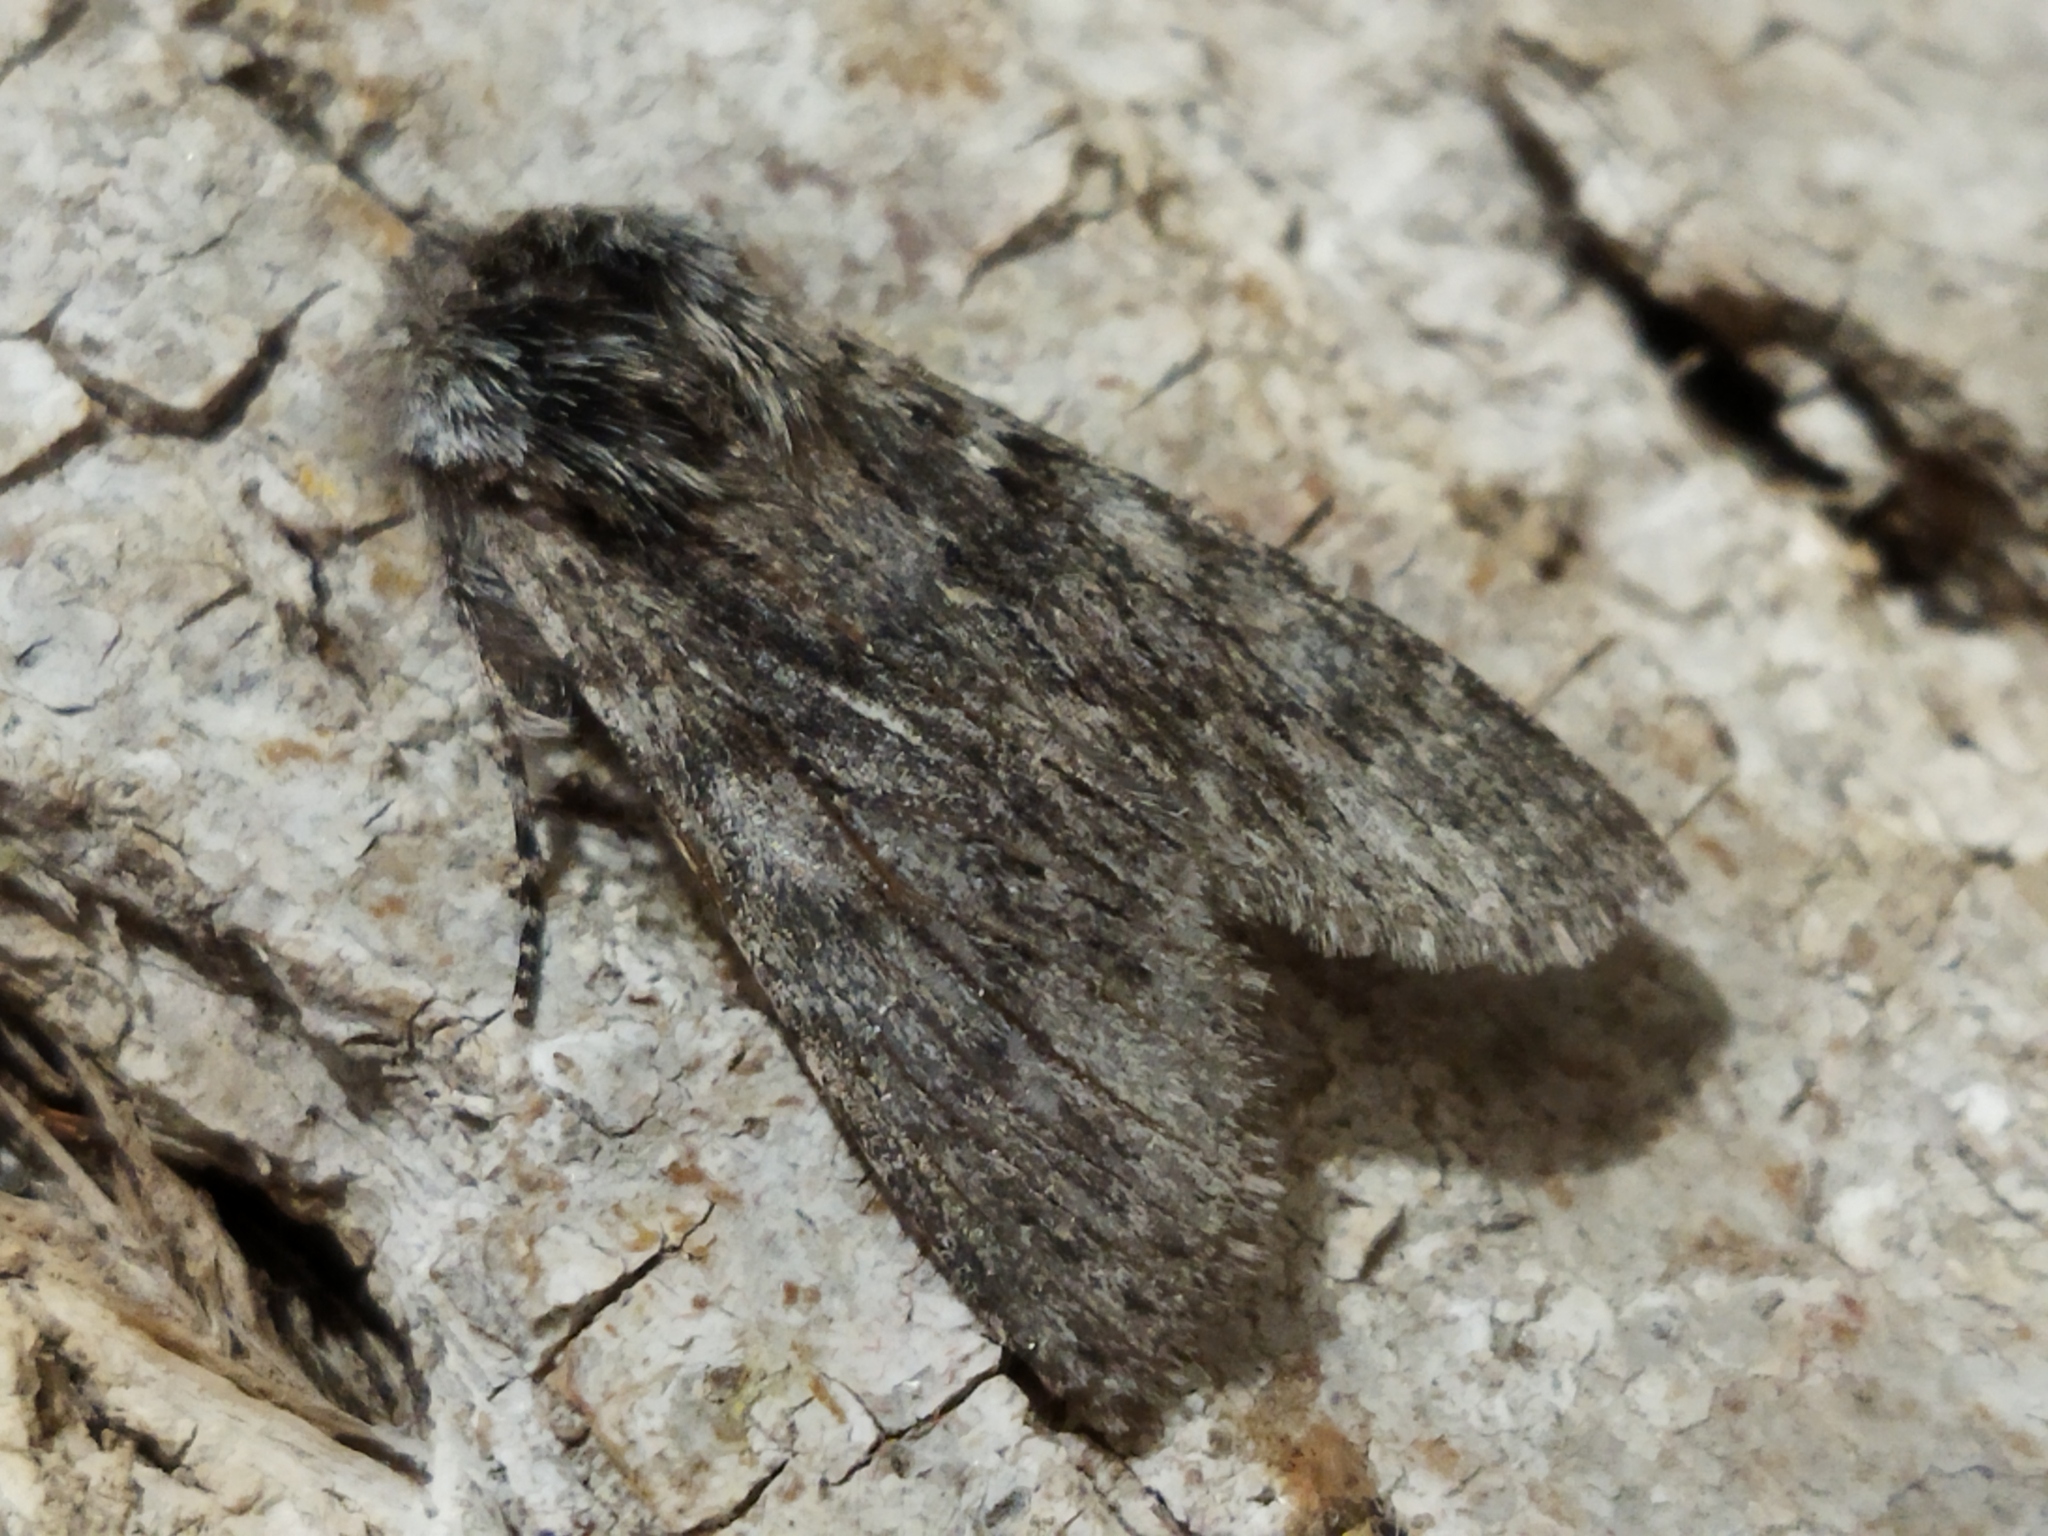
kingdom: Animalia
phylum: Arthropoda
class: Insecta
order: Lepidoptera
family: Notodontidae
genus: Dicranura
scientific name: Dicranura ulmi
